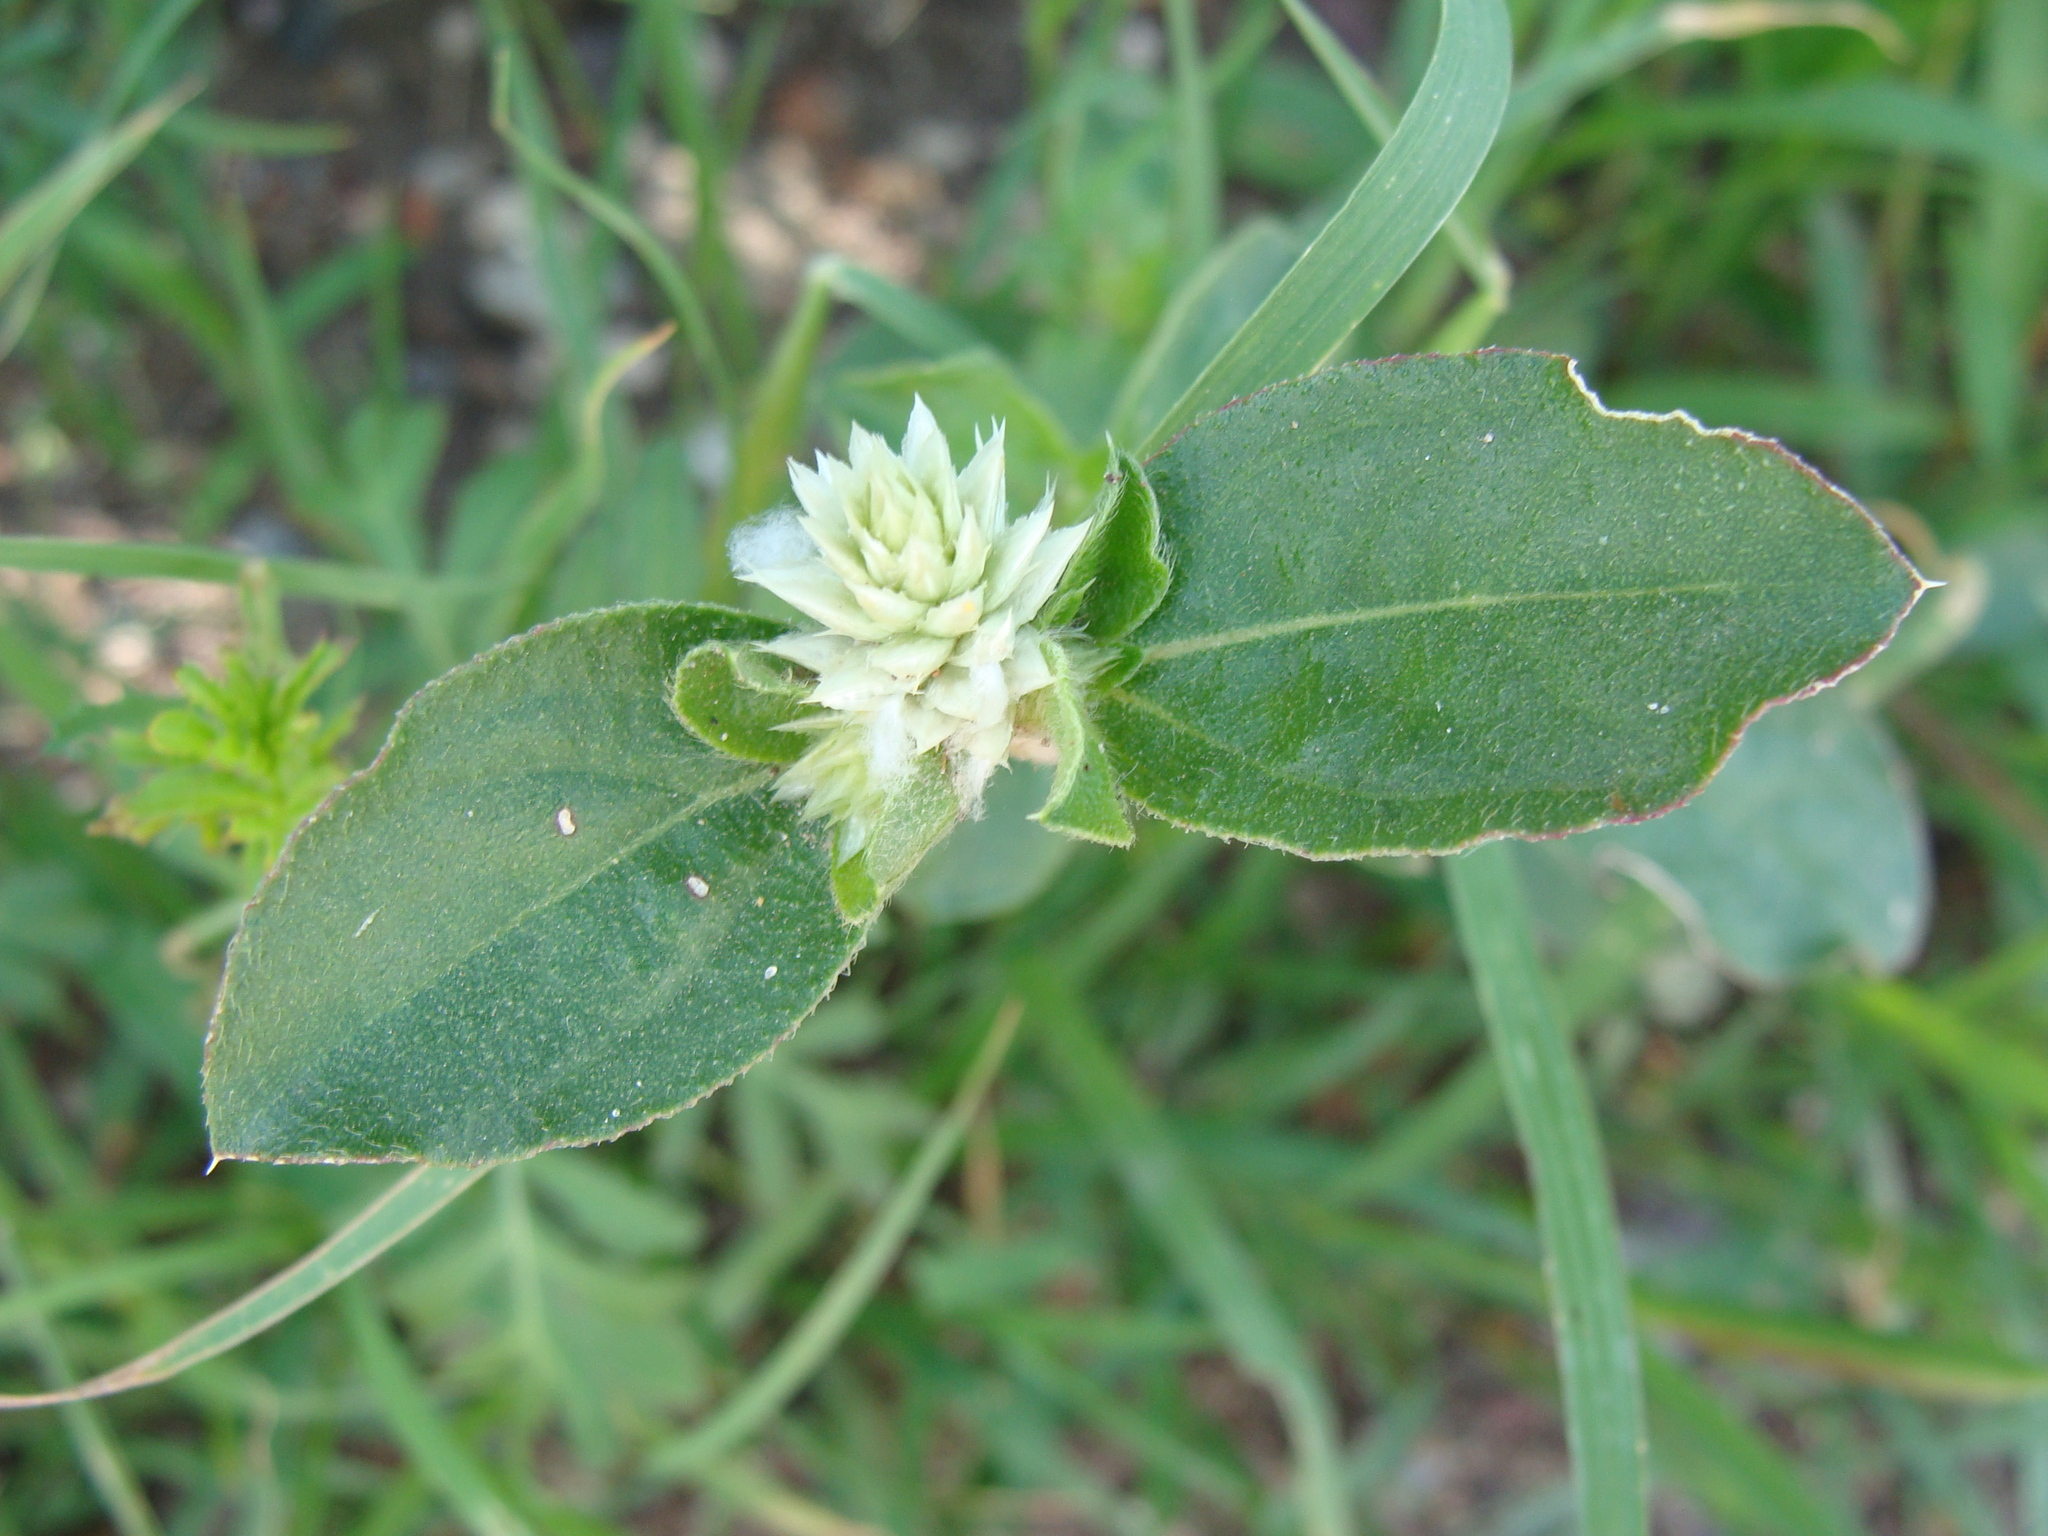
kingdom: Plantae
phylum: Tracheophyta
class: Magnoliopsida
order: Caryophyllales
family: Amaranthaceae
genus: Gomphrena
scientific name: Gomphrena serrata
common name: Arrasa con todo
